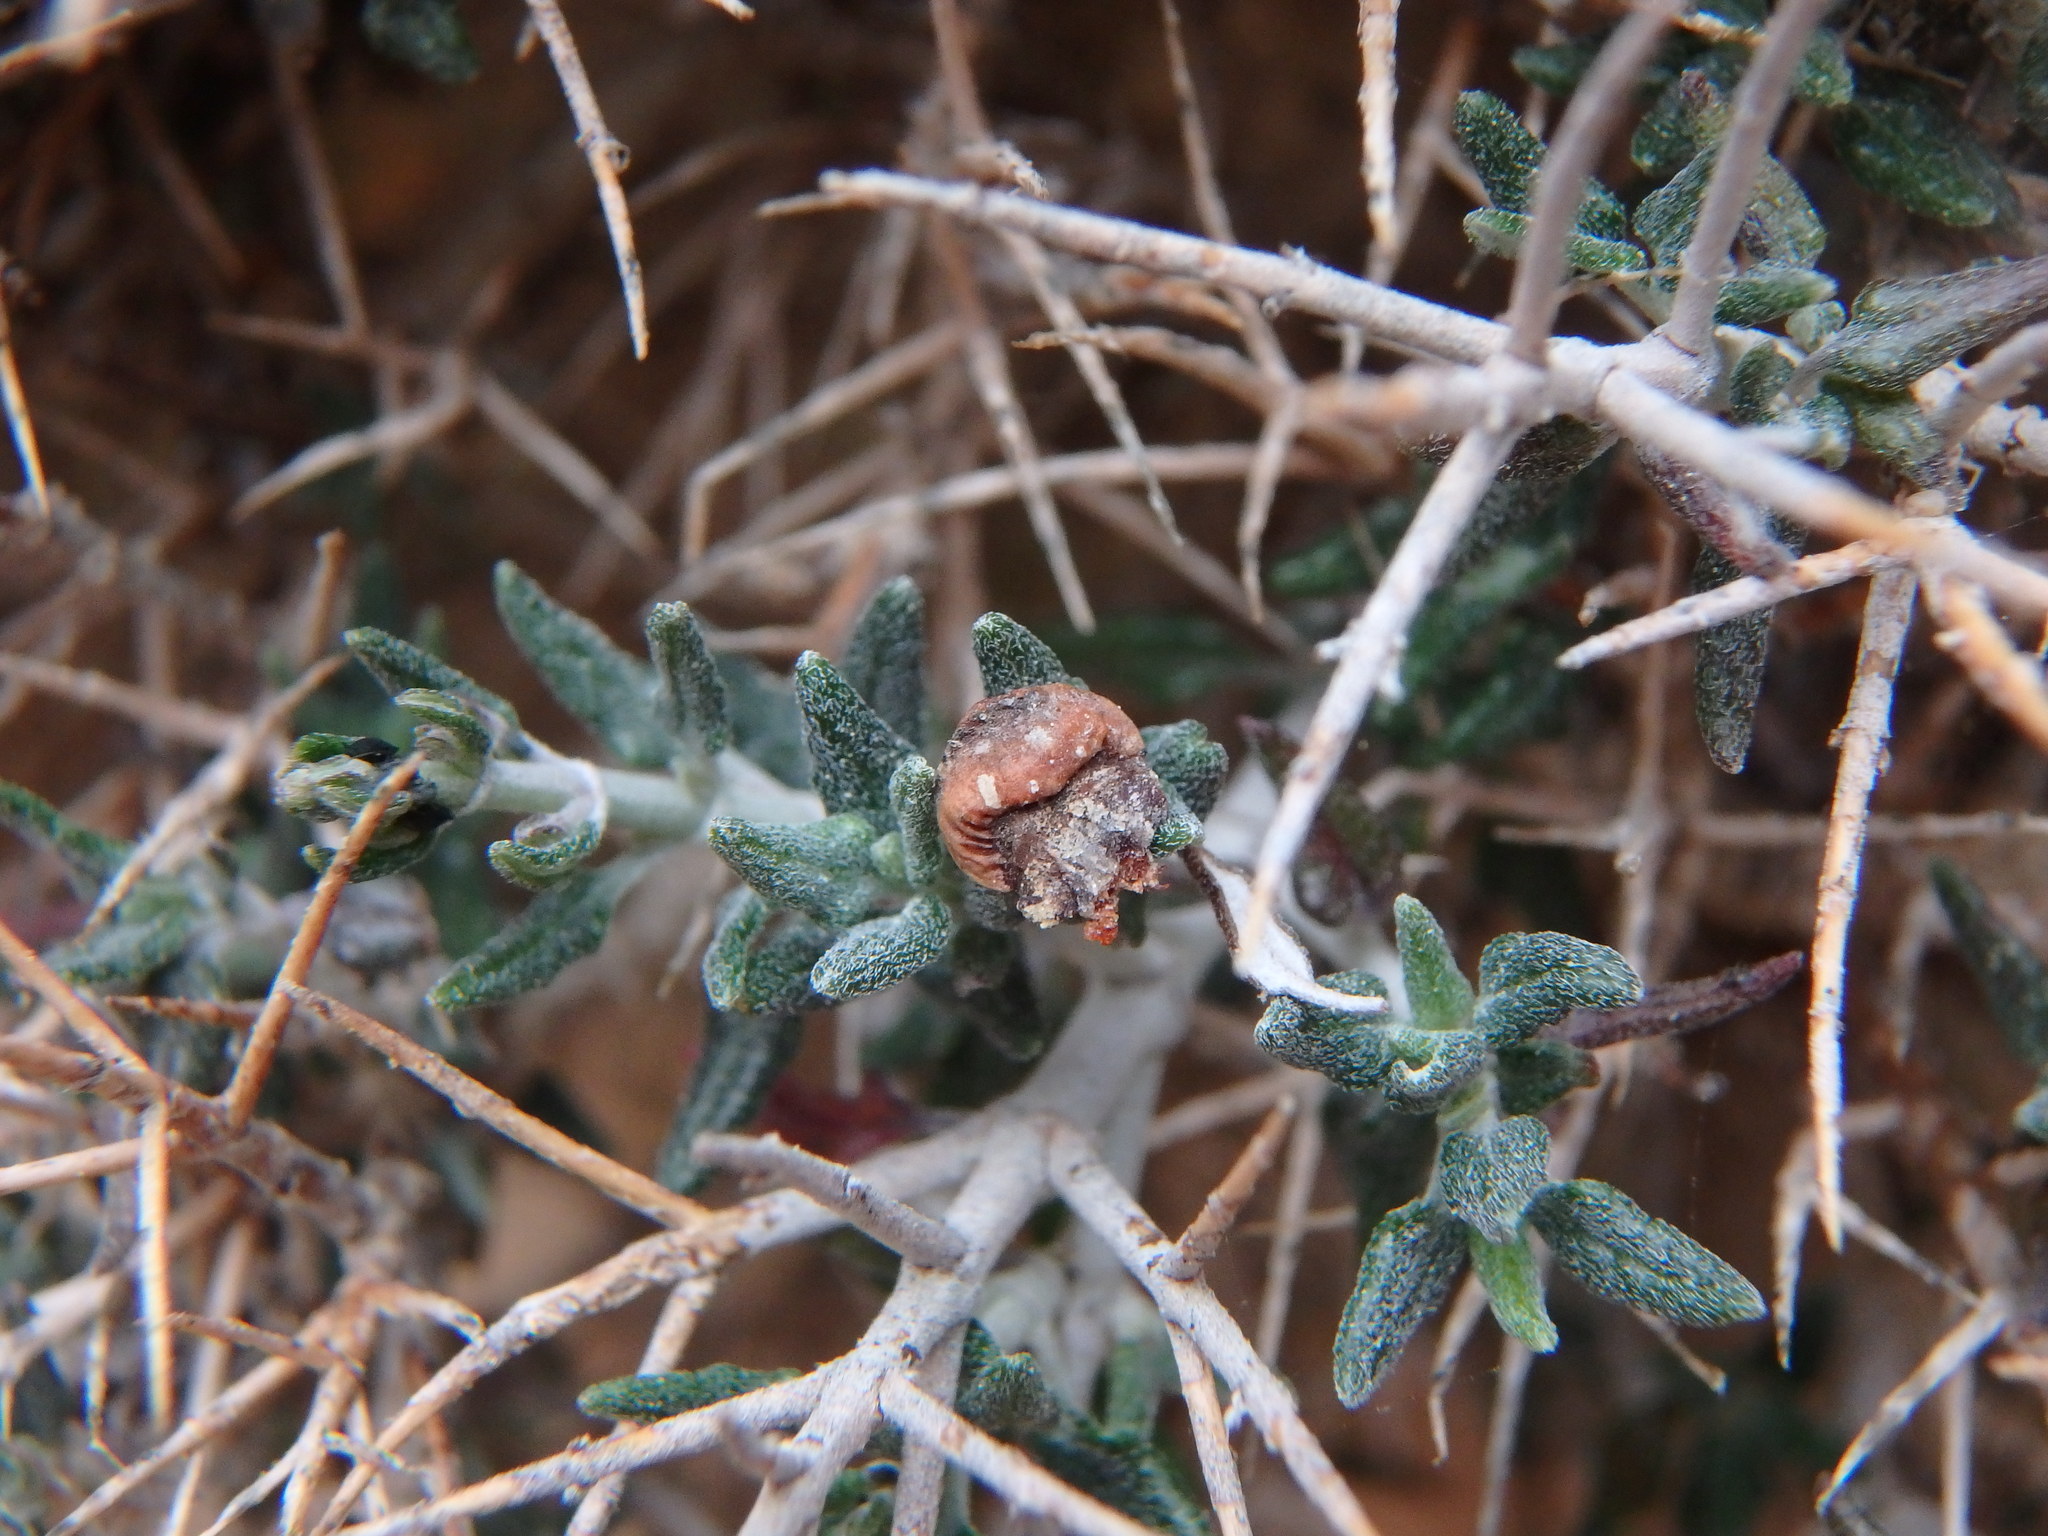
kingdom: Plantae
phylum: Tracheophyta
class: Magnoliopsida
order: Lamiales
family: Lamiaceae
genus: Teucrium
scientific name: Teucrium balearicum
